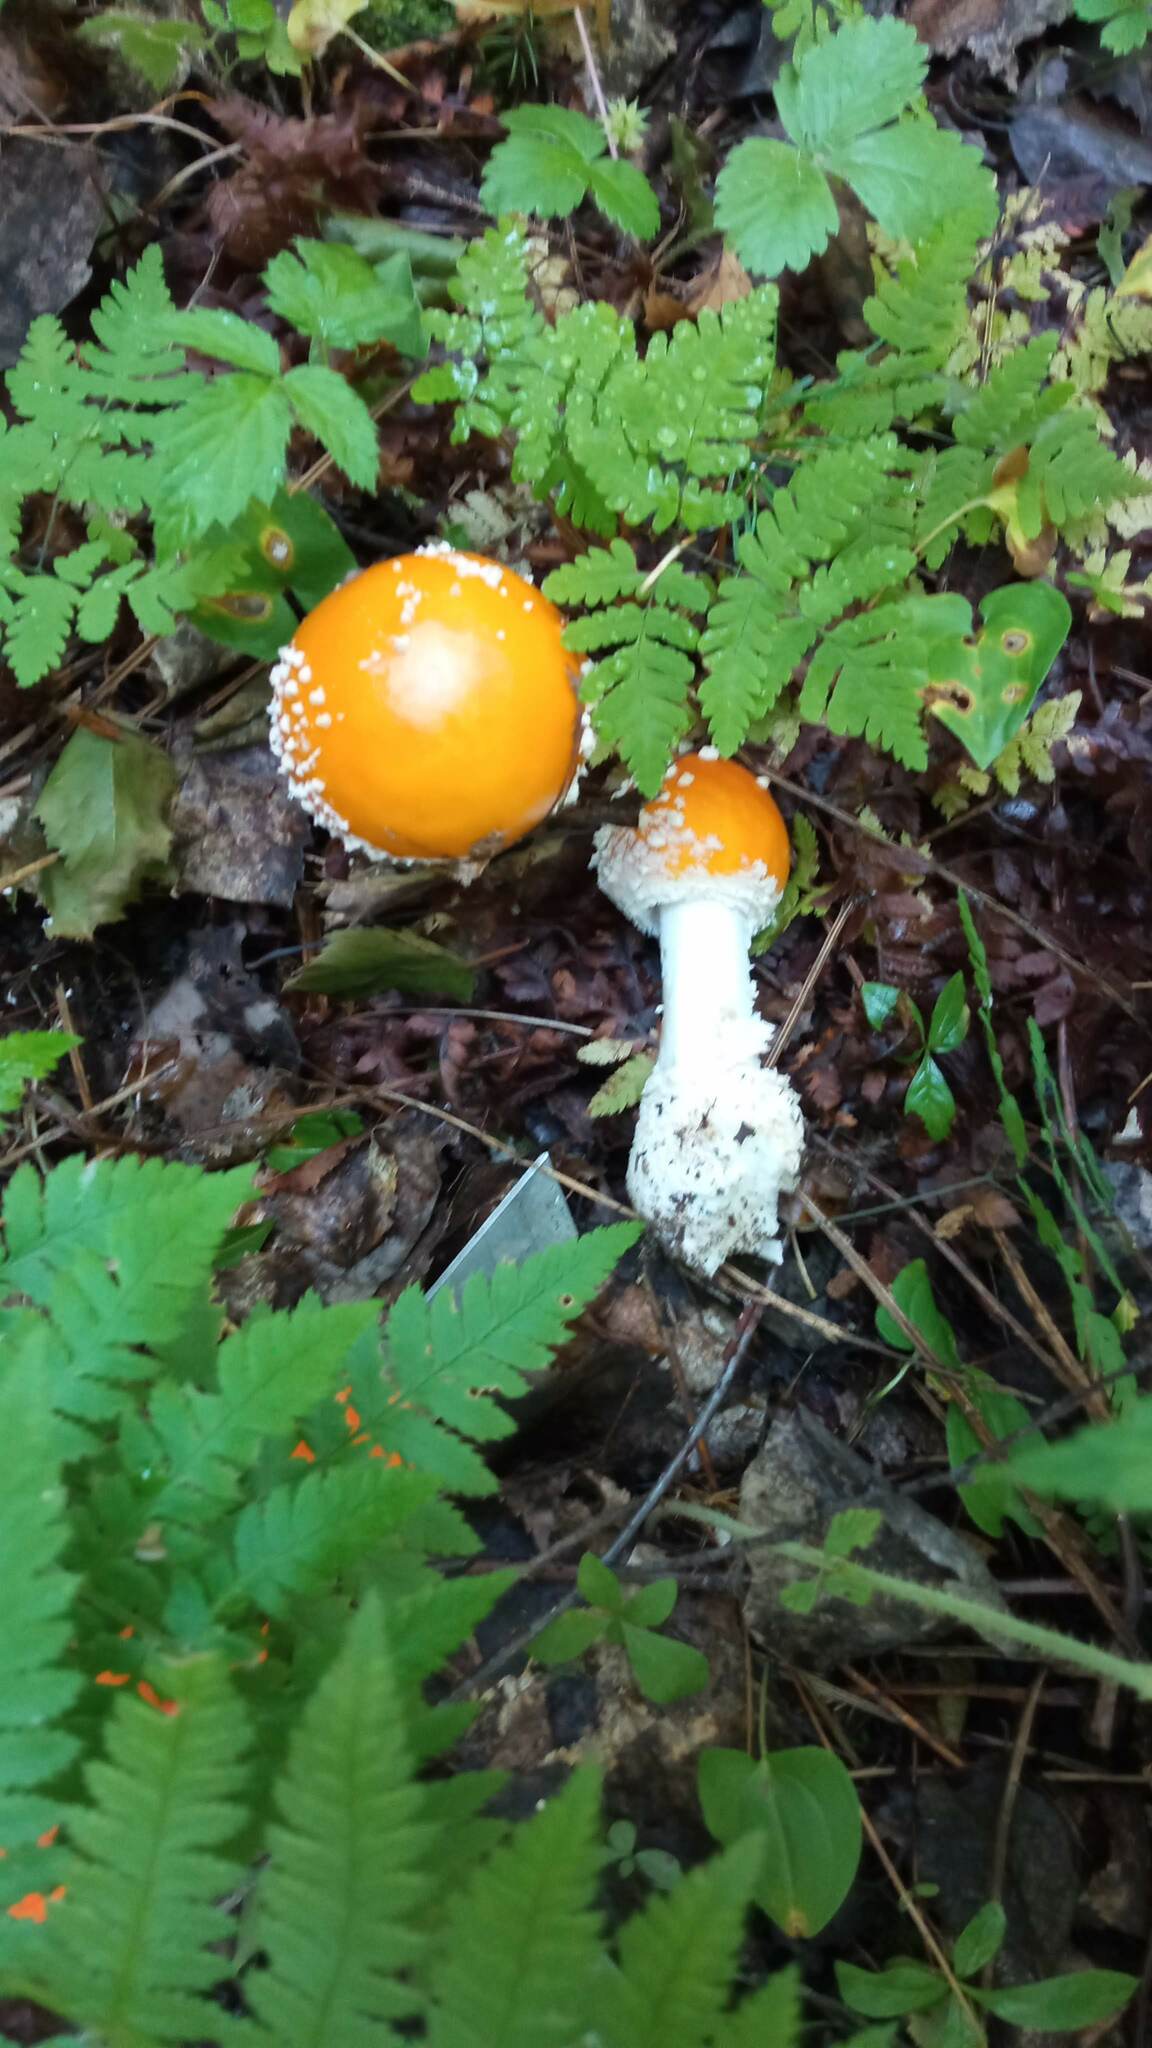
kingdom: Fungi
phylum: Basidiomycota
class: Agaricomycetes
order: Agaricales
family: Amanitaceae
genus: Amanita
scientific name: Amanita muscaria
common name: Fly agaric
